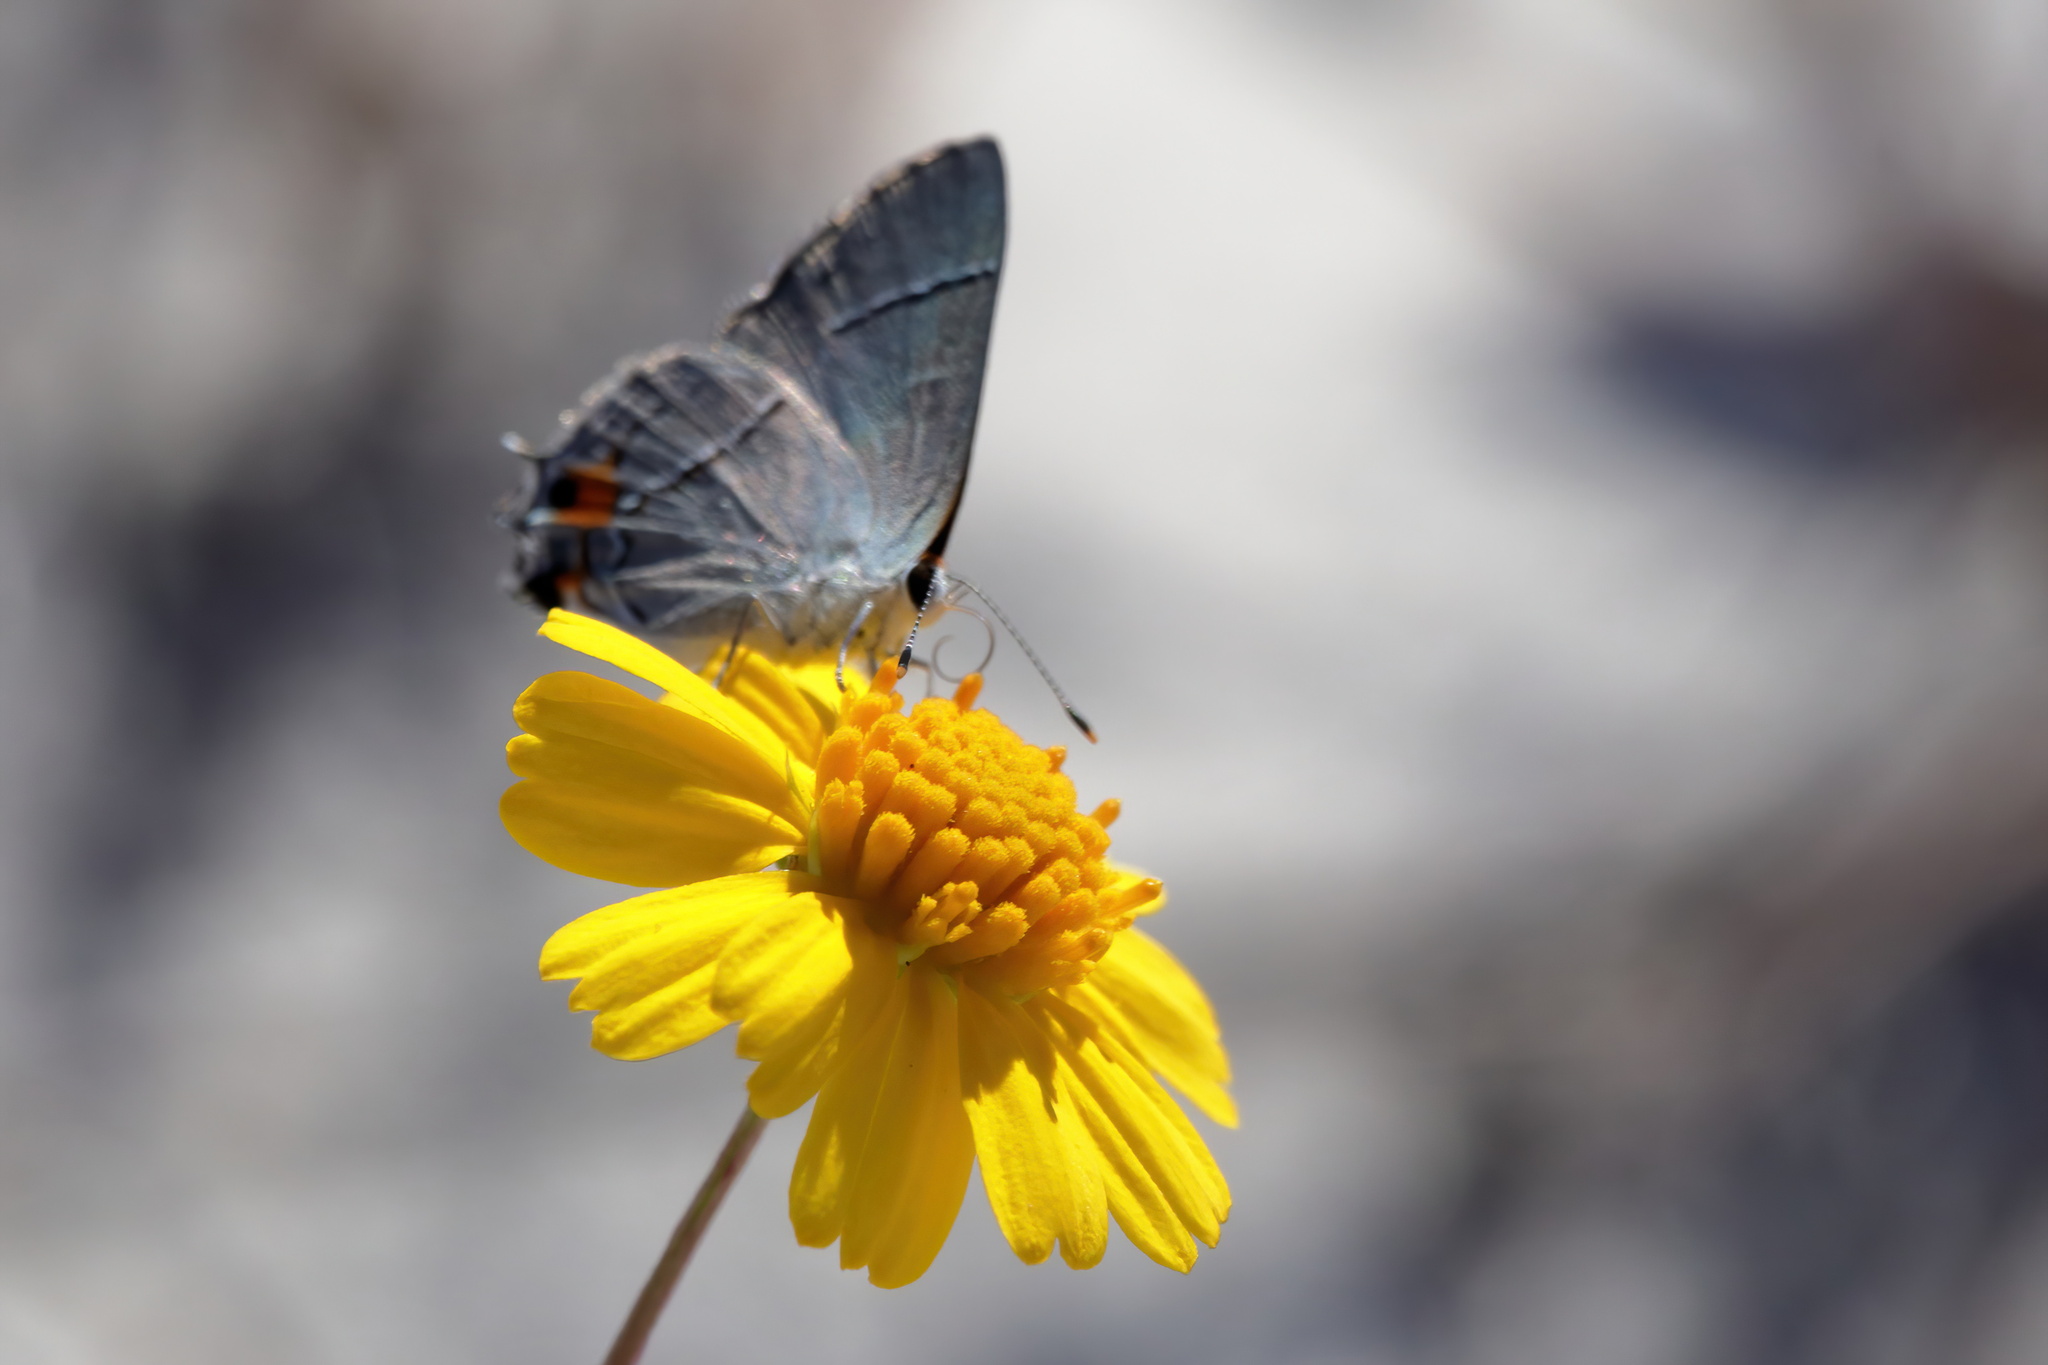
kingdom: Animalia
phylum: Arthropoda
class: Insecta
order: Lepidoptera
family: Lycaenidae
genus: Strymon
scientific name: Strymon melinus
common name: Gray hairstreak
